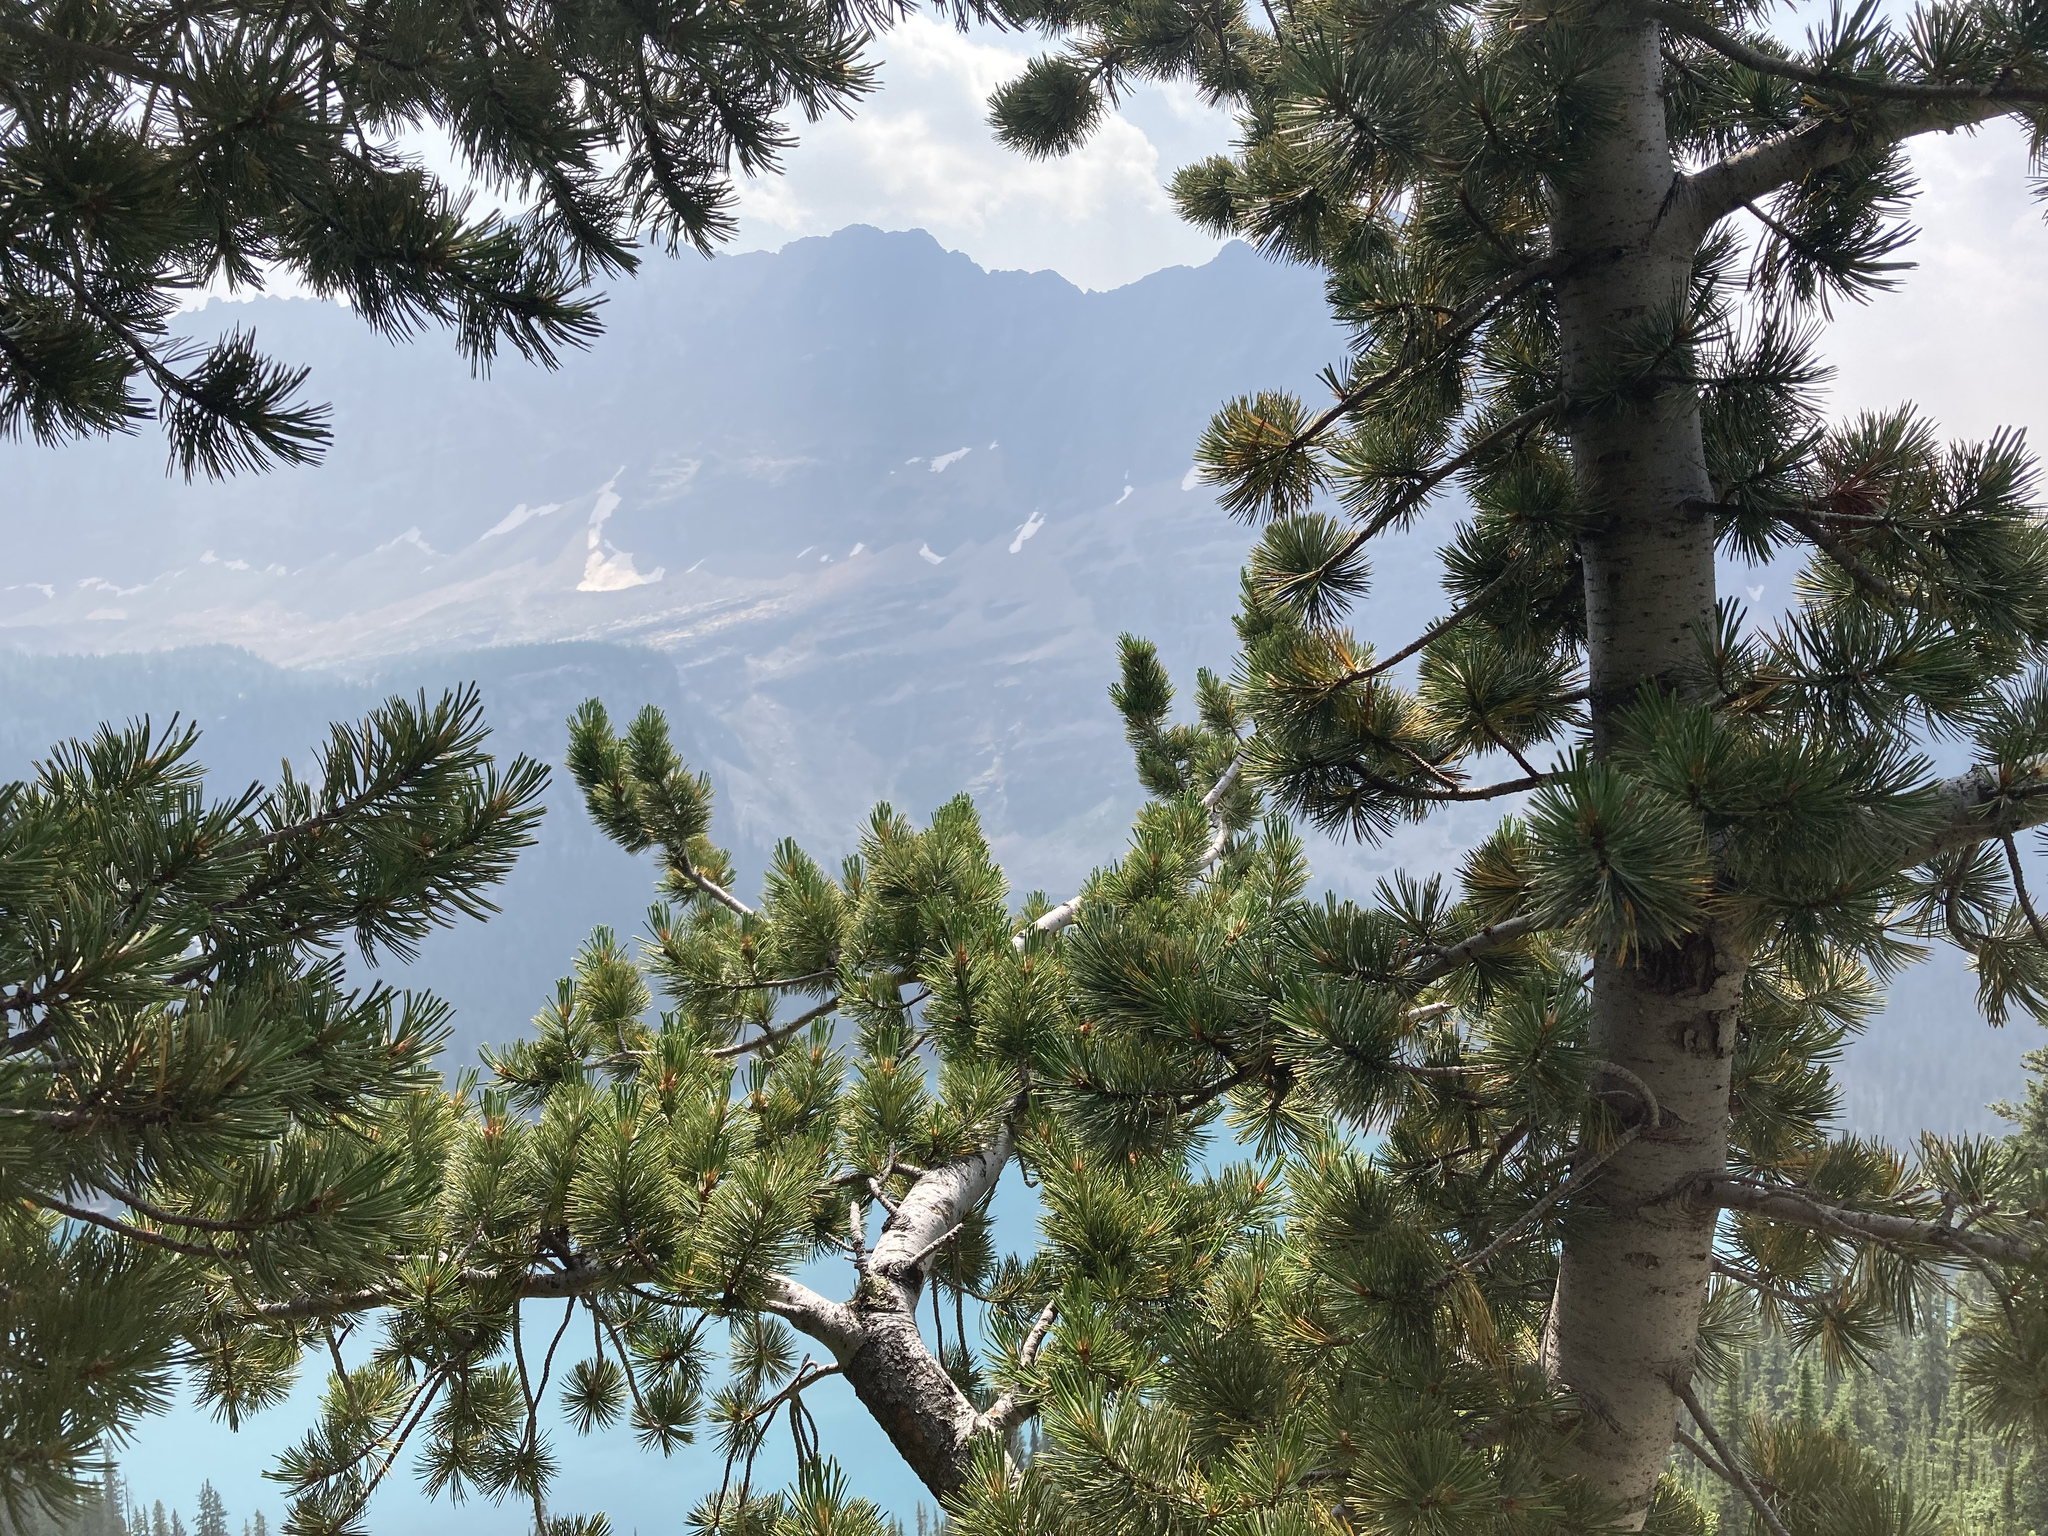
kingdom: Plantae
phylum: Tracheophyta
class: Pinopsida
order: Pinales
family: Pinaceae
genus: Pinus
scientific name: Pinus albicaulis
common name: Whitebark pine
